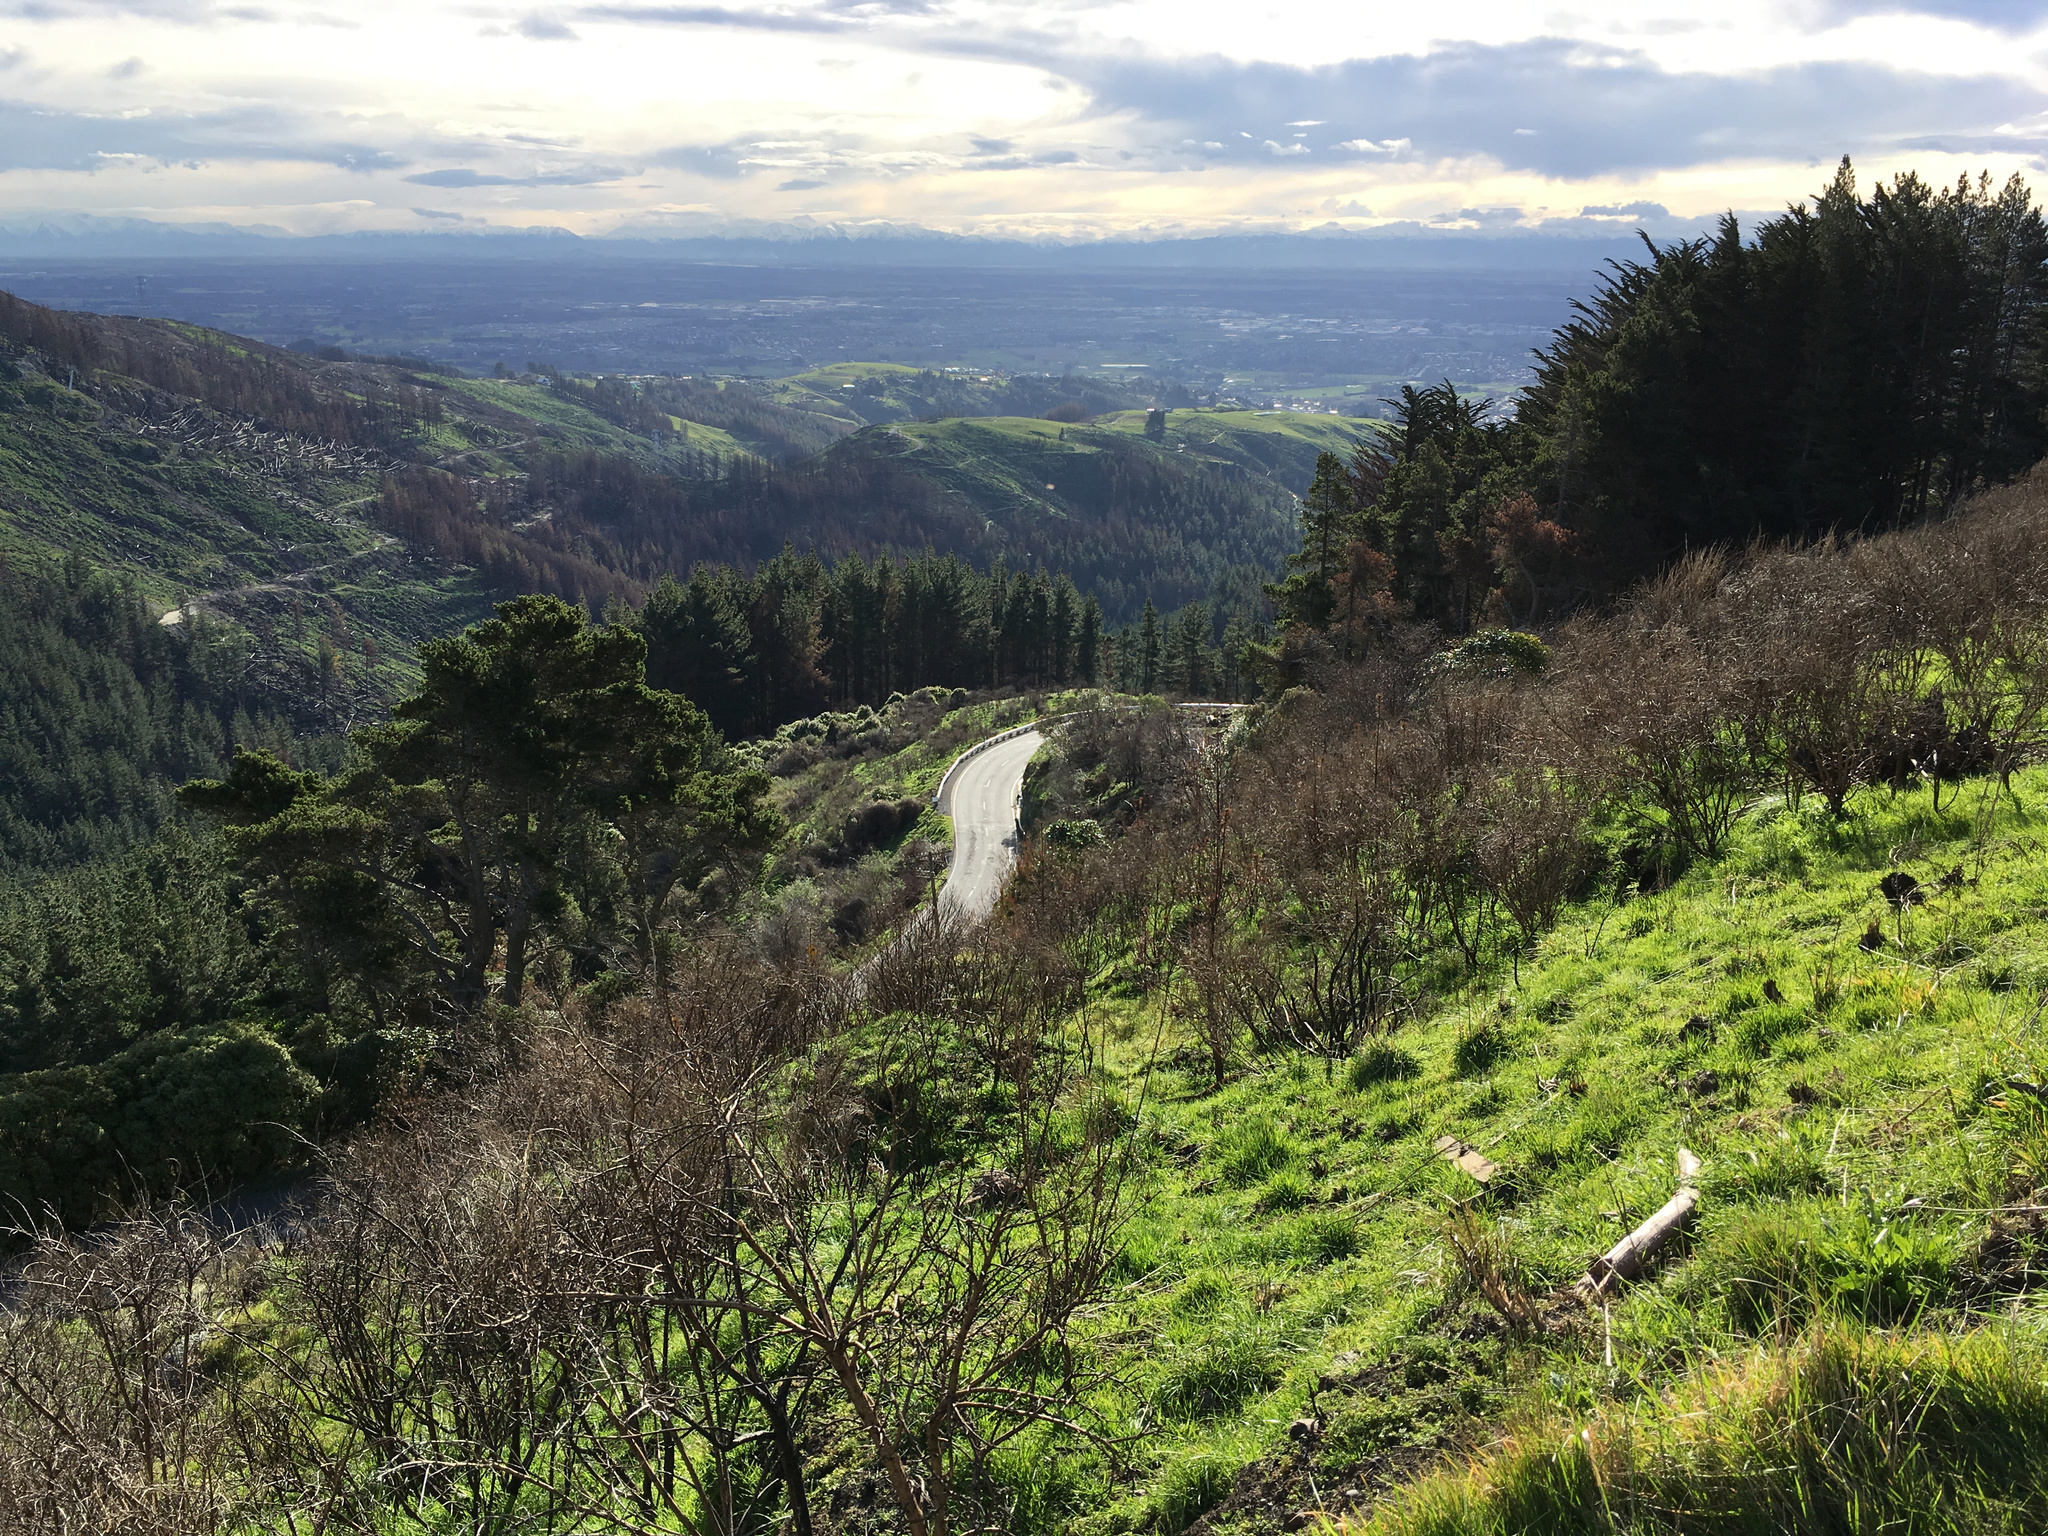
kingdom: Plantae
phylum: Tracheophyta
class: Magnoliopsida
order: Fabales
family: Fabaceae
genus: Cytisus
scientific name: Cytisus scoparius
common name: Scotch broom
